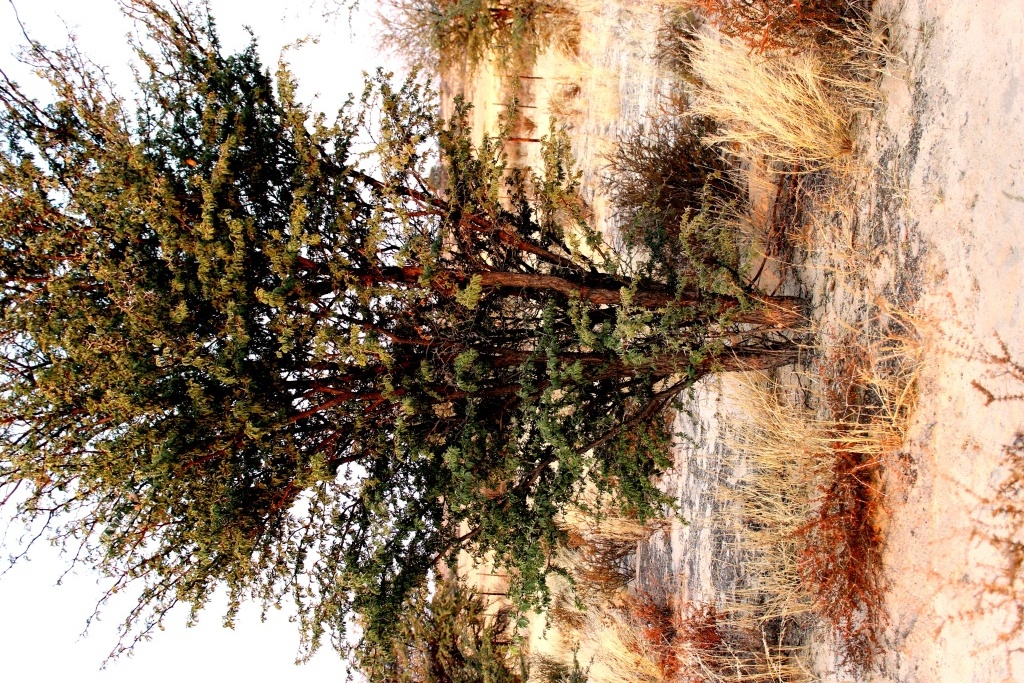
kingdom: Plantae
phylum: Tracheophyta
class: Magnoliopsida
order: Fabales
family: Fabaceae
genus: Vachellia
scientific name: Vachellia erioloba
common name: Camel thorn
